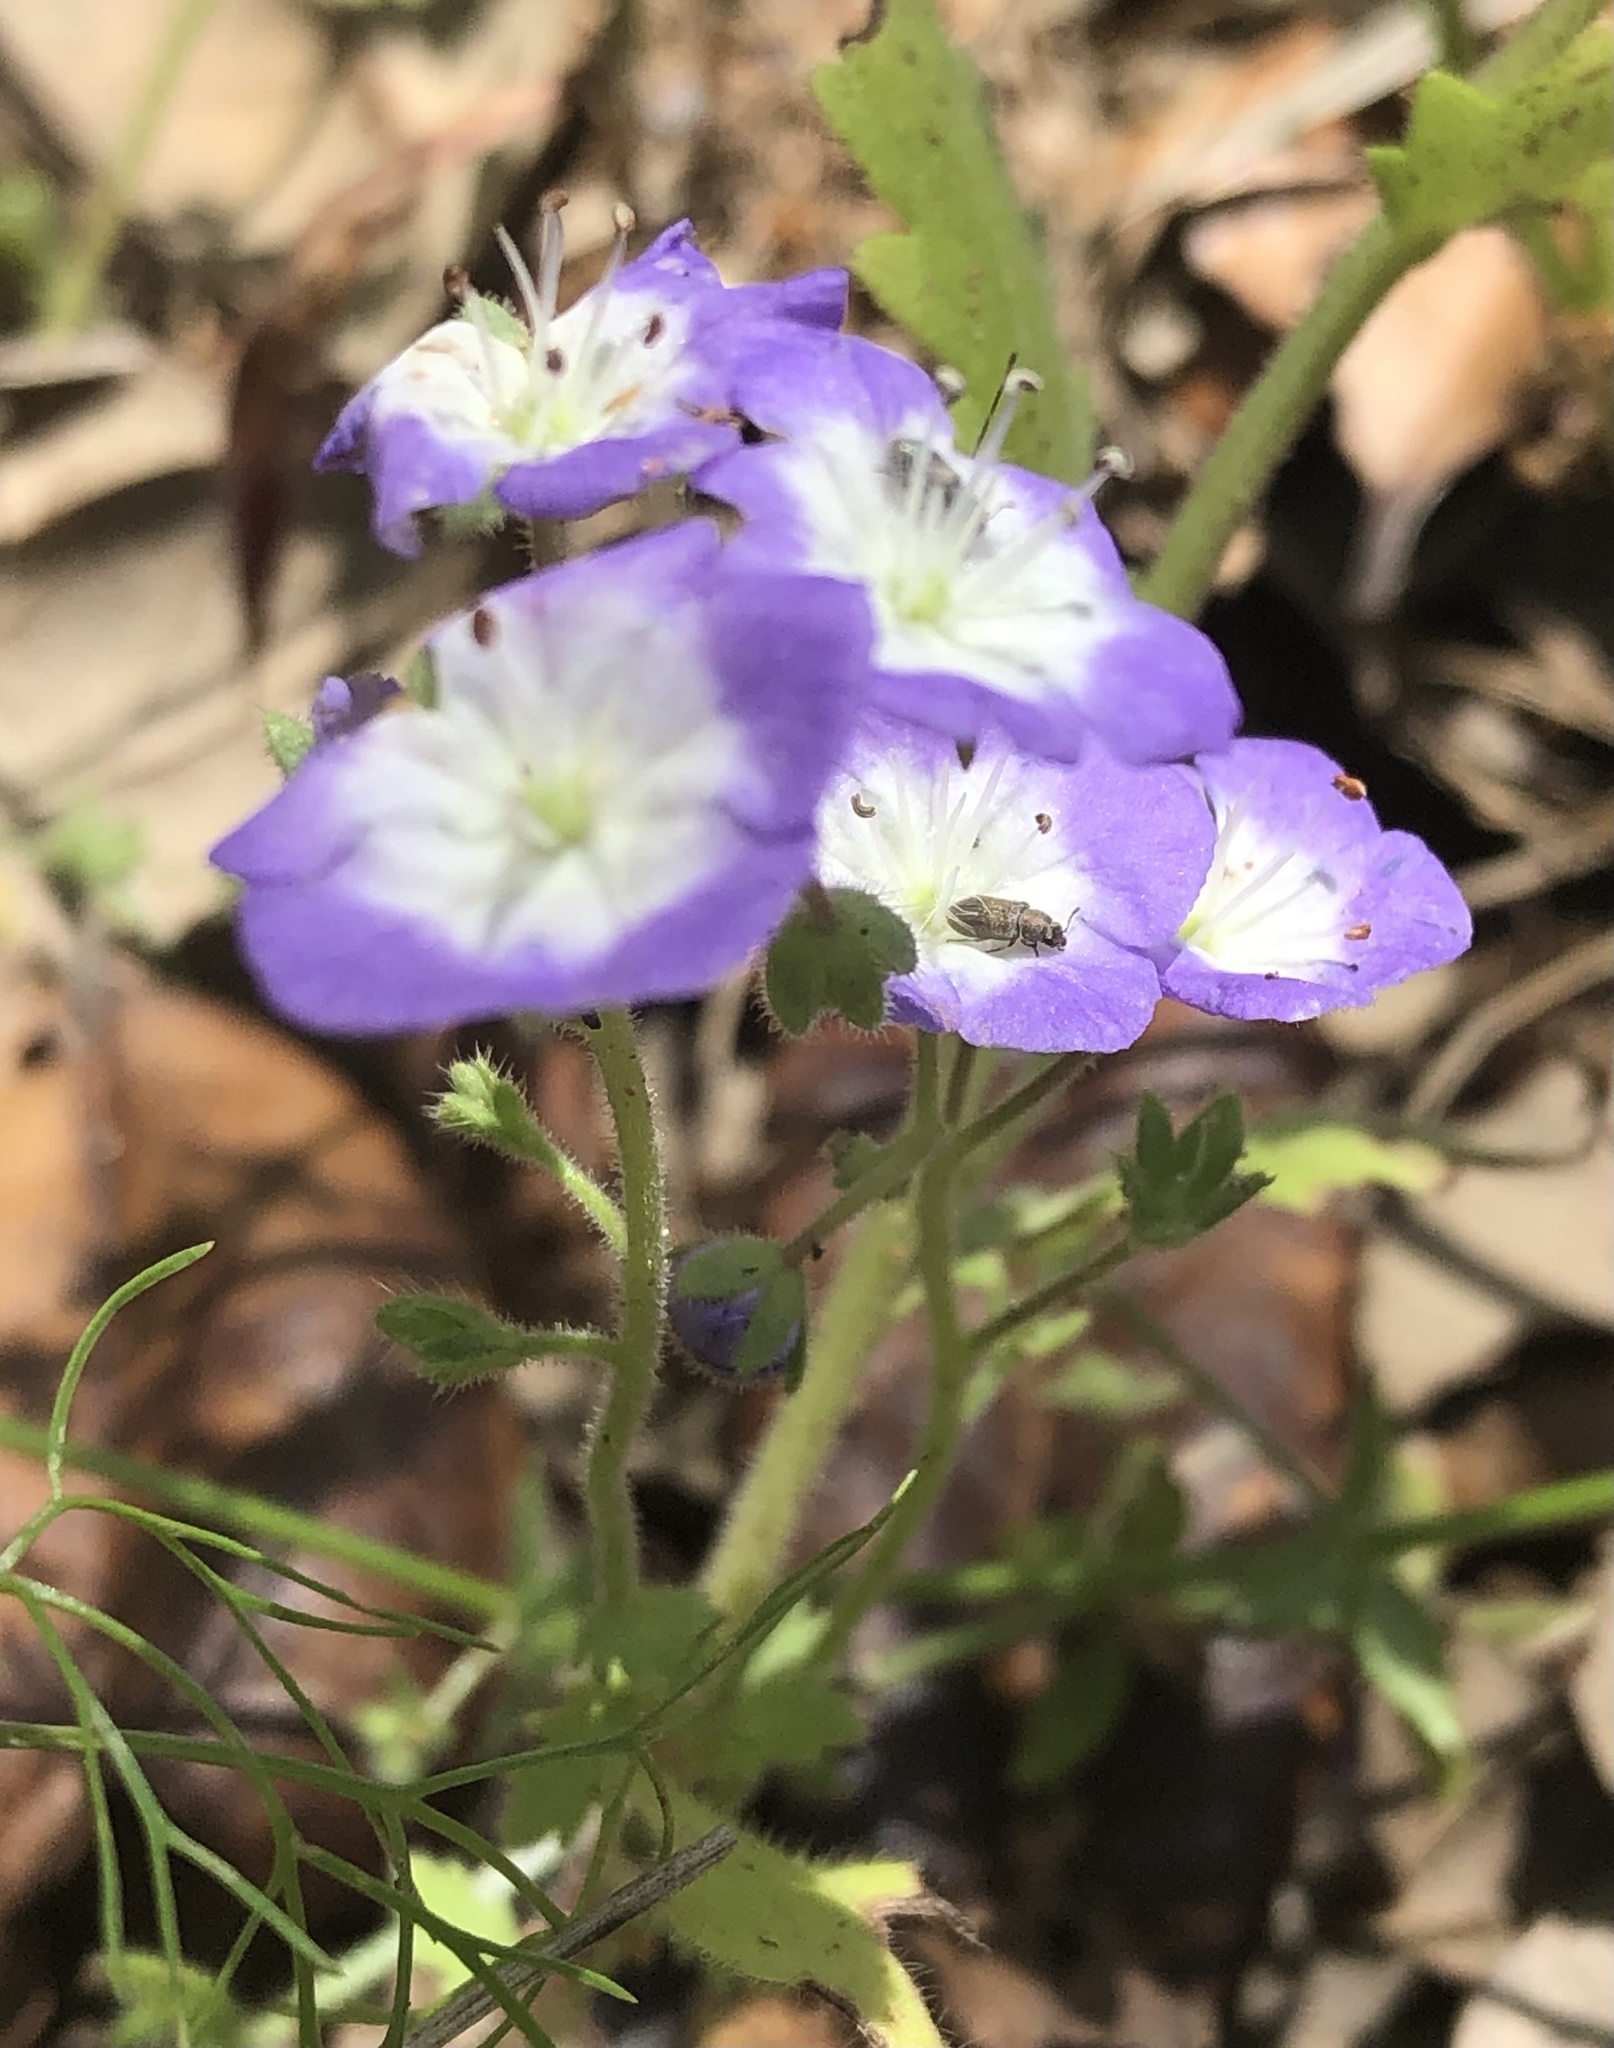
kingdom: Plantae
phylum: Tracheophyta
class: Magnoliopsida
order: Boraginales
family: Hydrophyllaceae
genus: Nemophila
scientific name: Nemophila phacelioides
